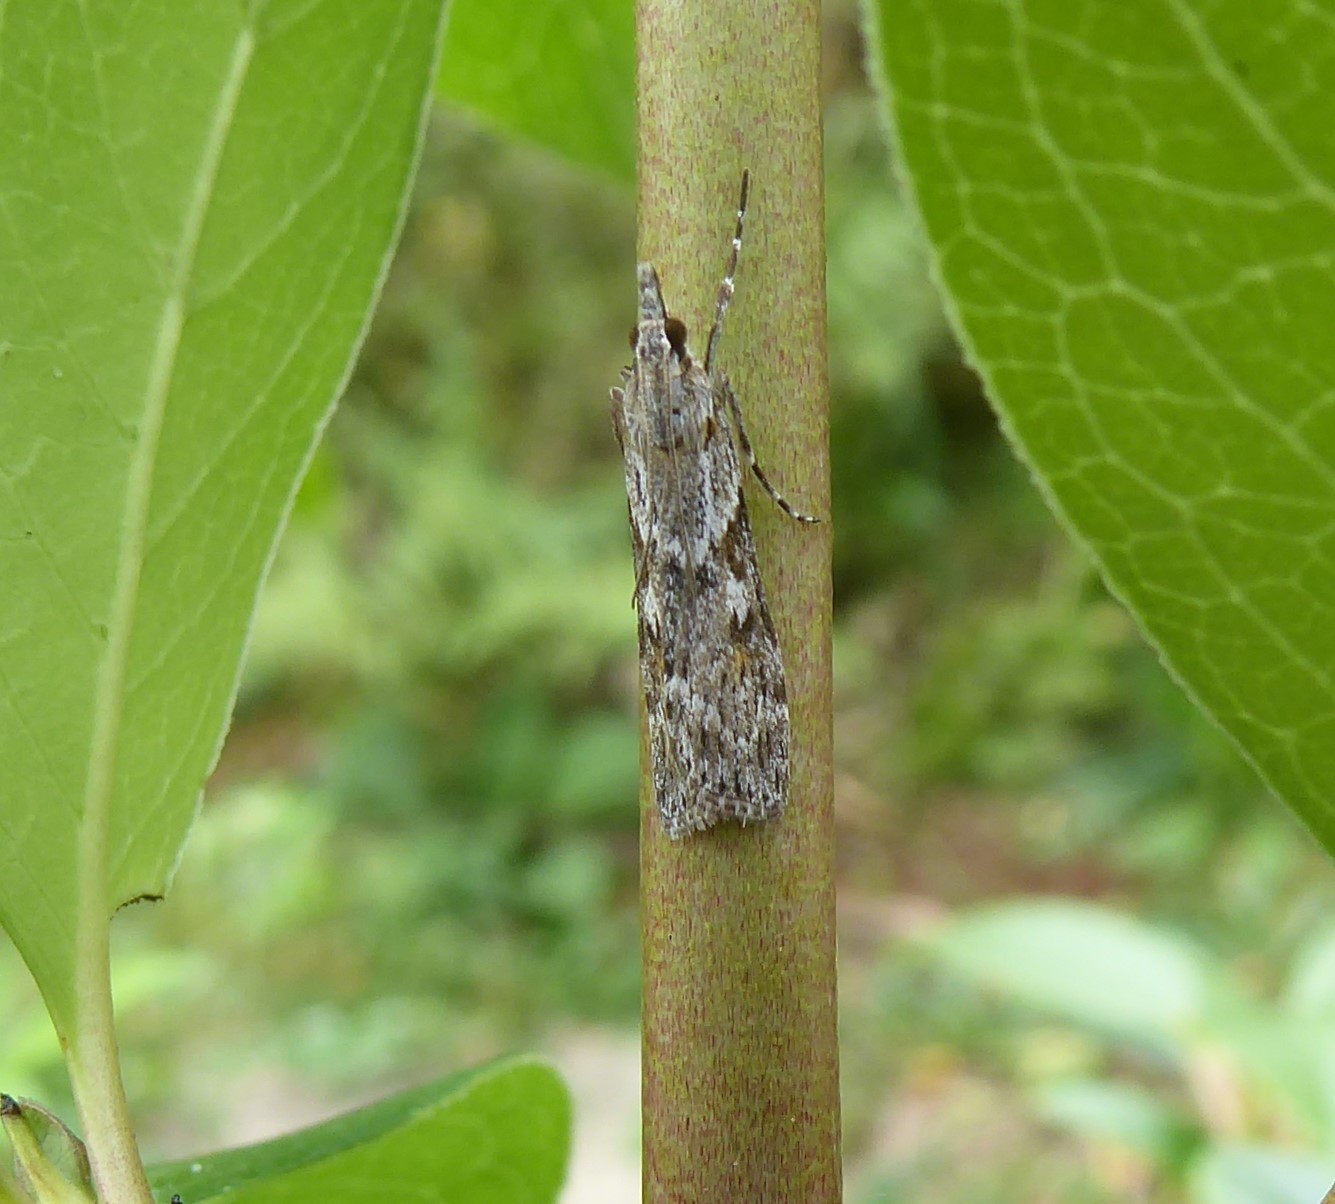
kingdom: Animalia
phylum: Arthropoda
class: Insecta
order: Lepidoptera
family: Crambidae
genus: Scoparia
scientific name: Scoparia halopis
